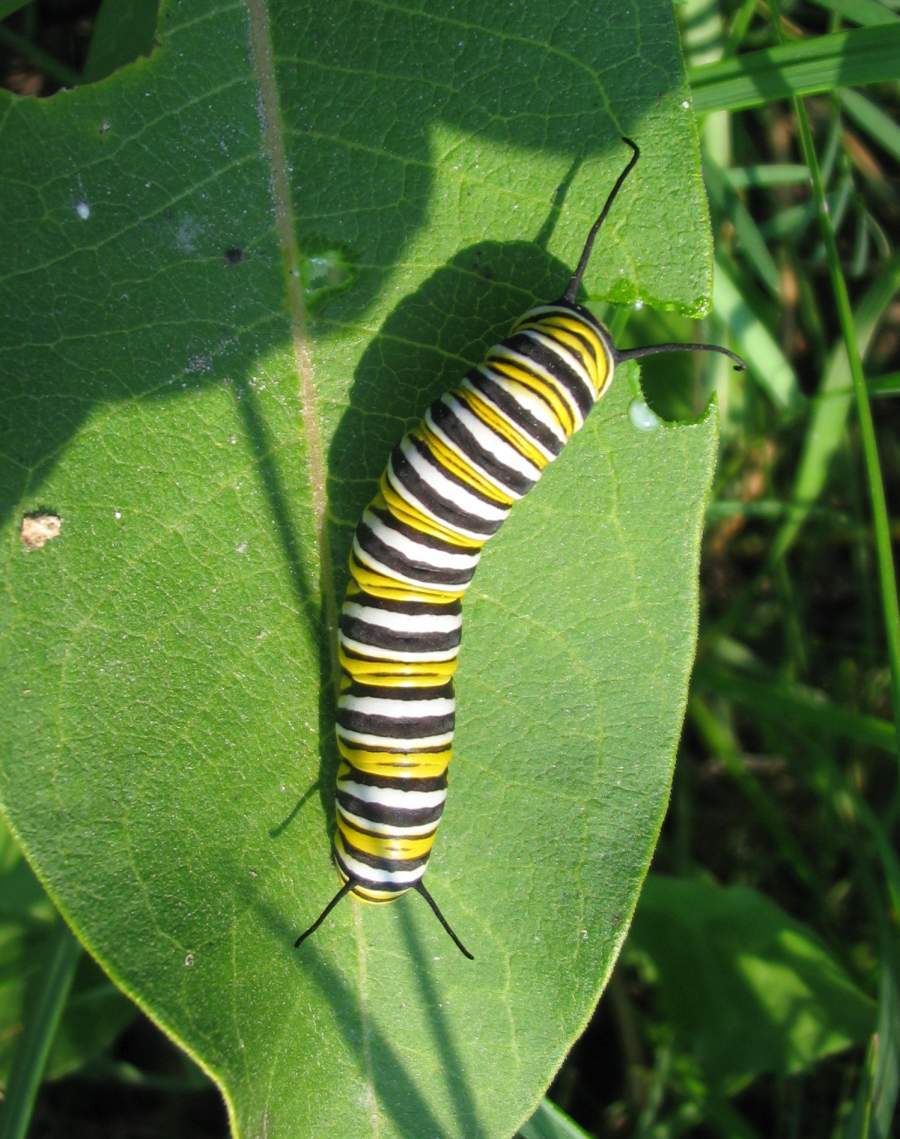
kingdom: Animalia
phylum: Arthropoda
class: Insecta
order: Lepidoptera
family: Nymphalidae
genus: Danaus
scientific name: Danaus plexippus
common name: Monarch
